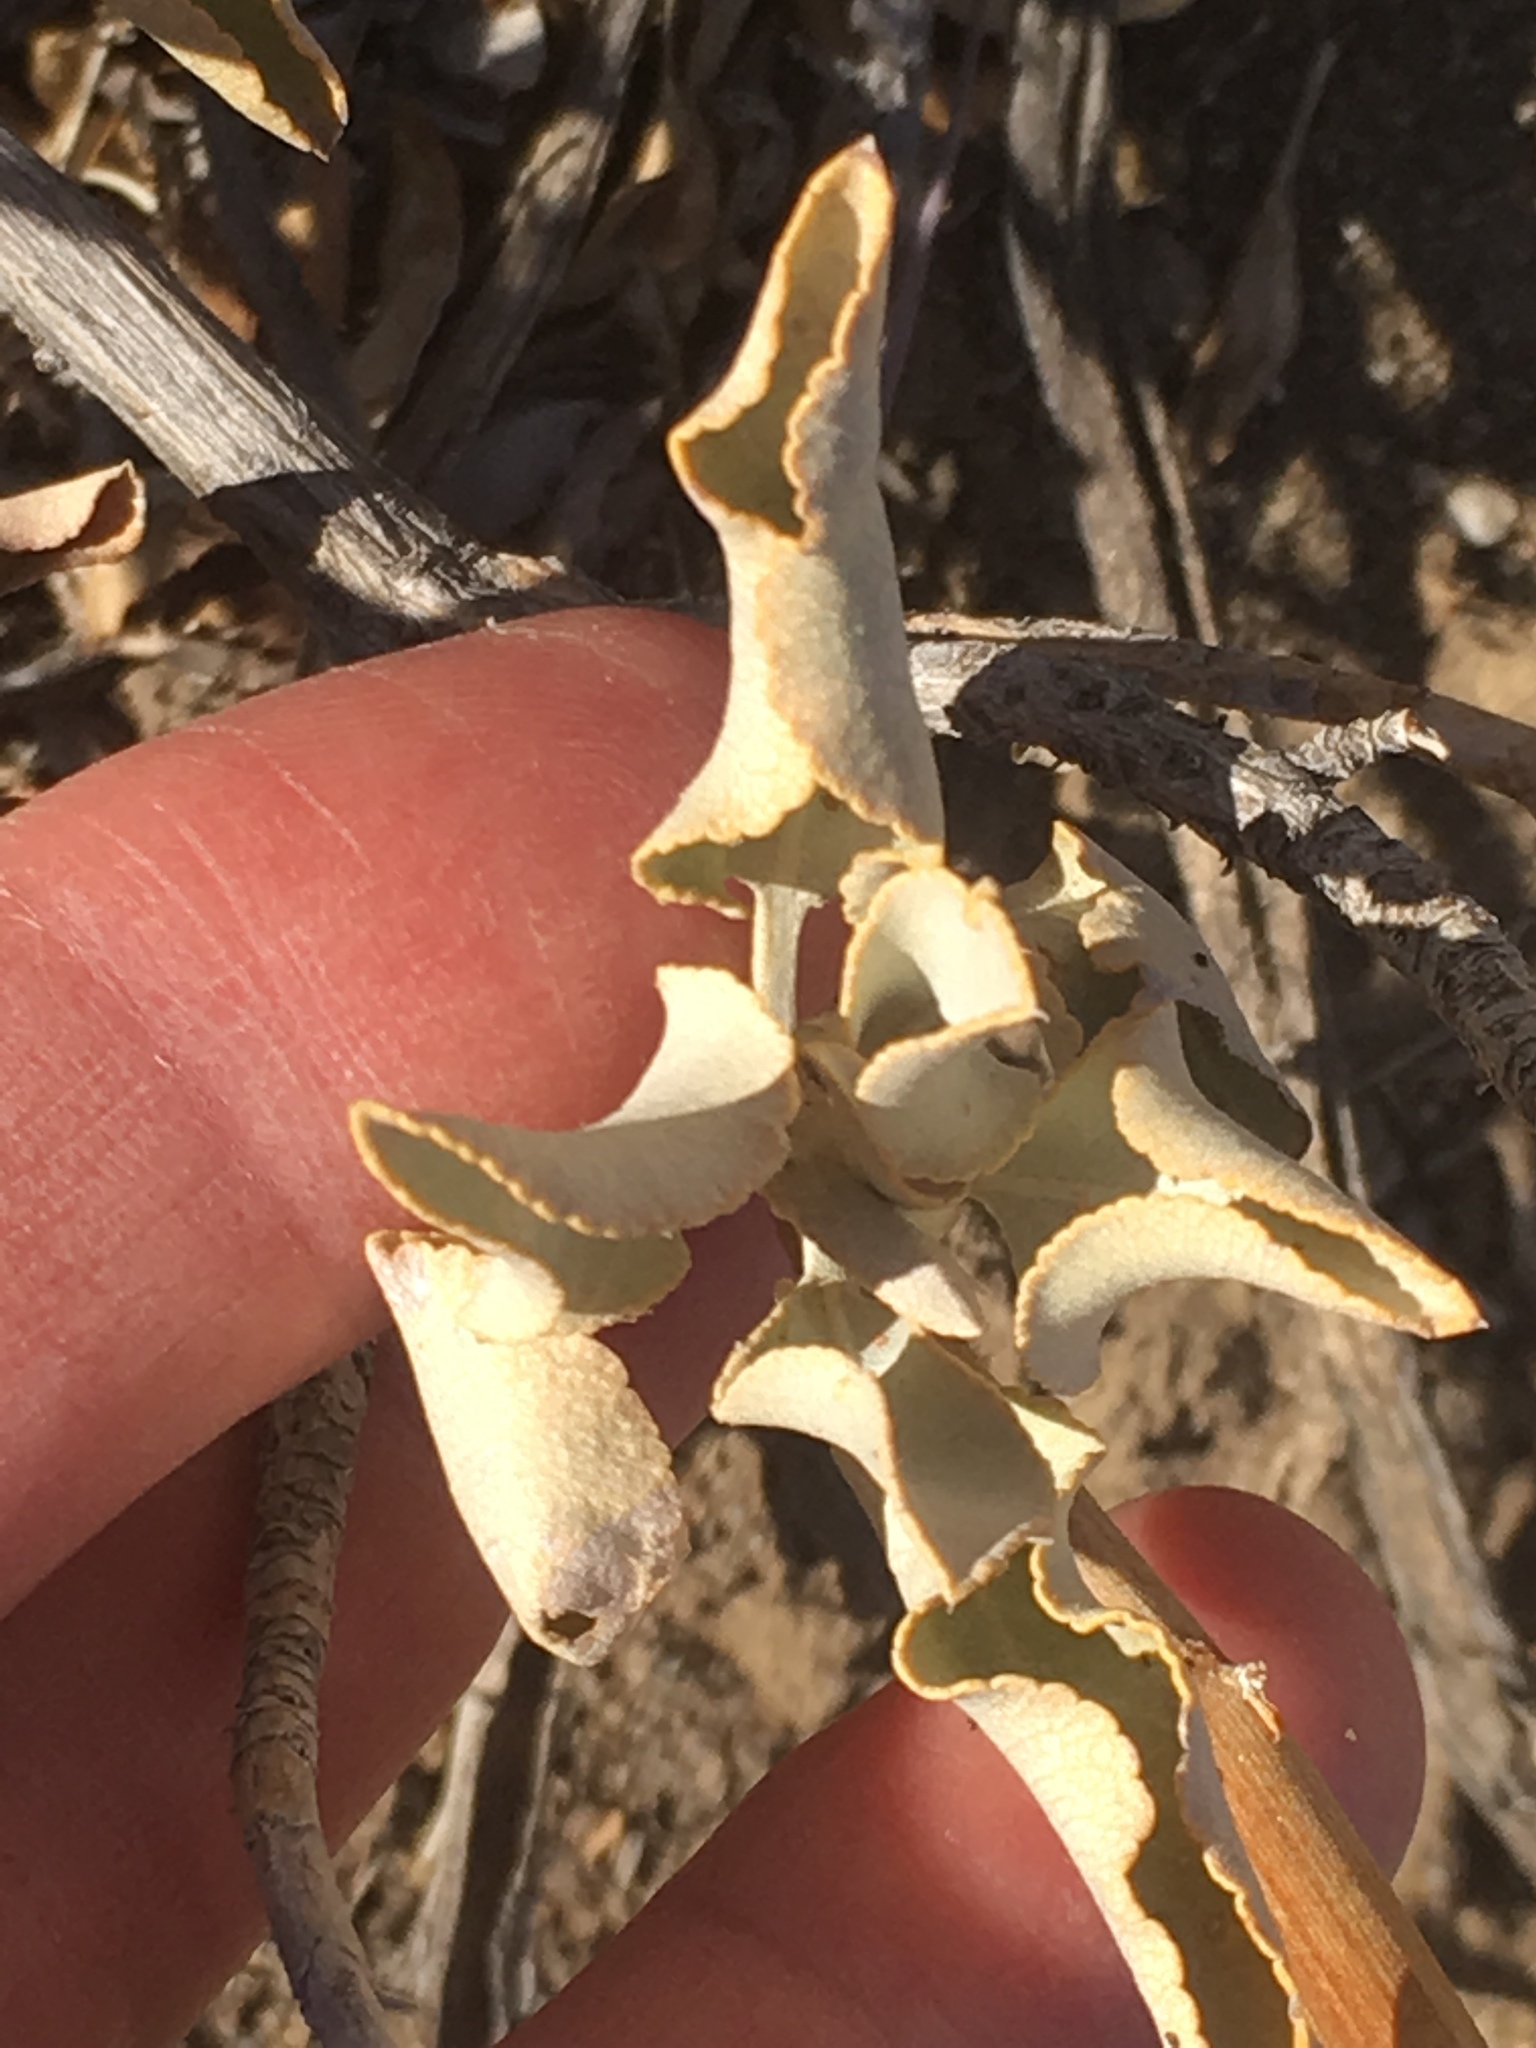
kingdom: Plantae
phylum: Tracheophyta
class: Magnoliopsida
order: Lamiales
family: Lamiaceae
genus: Salvia
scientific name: Salvia vaseyi
